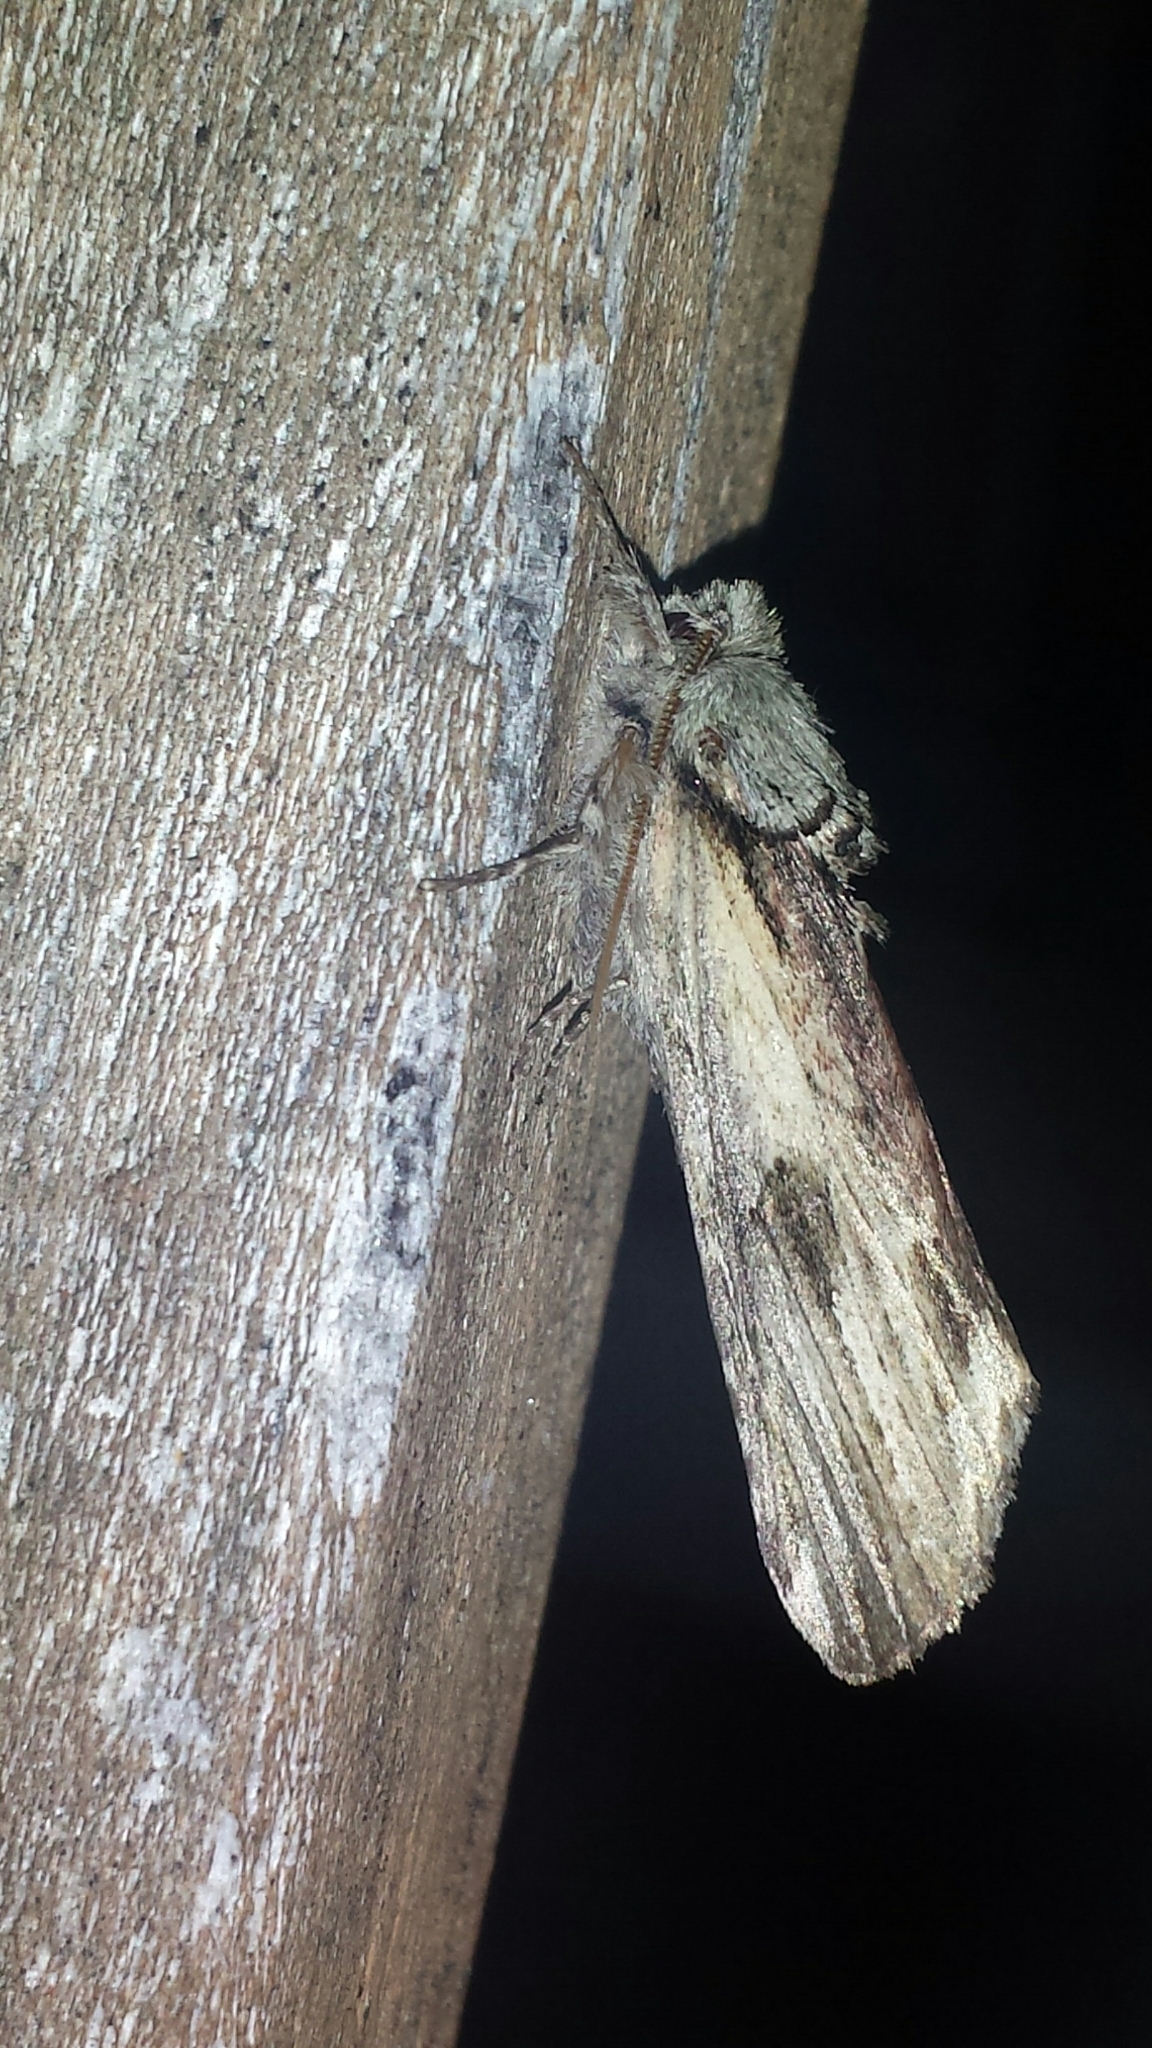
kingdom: Animalia
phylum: Arthropoda
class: Insecta
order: Lepidoptera
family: Notodontidae
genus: Schizura
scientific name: Schizura
